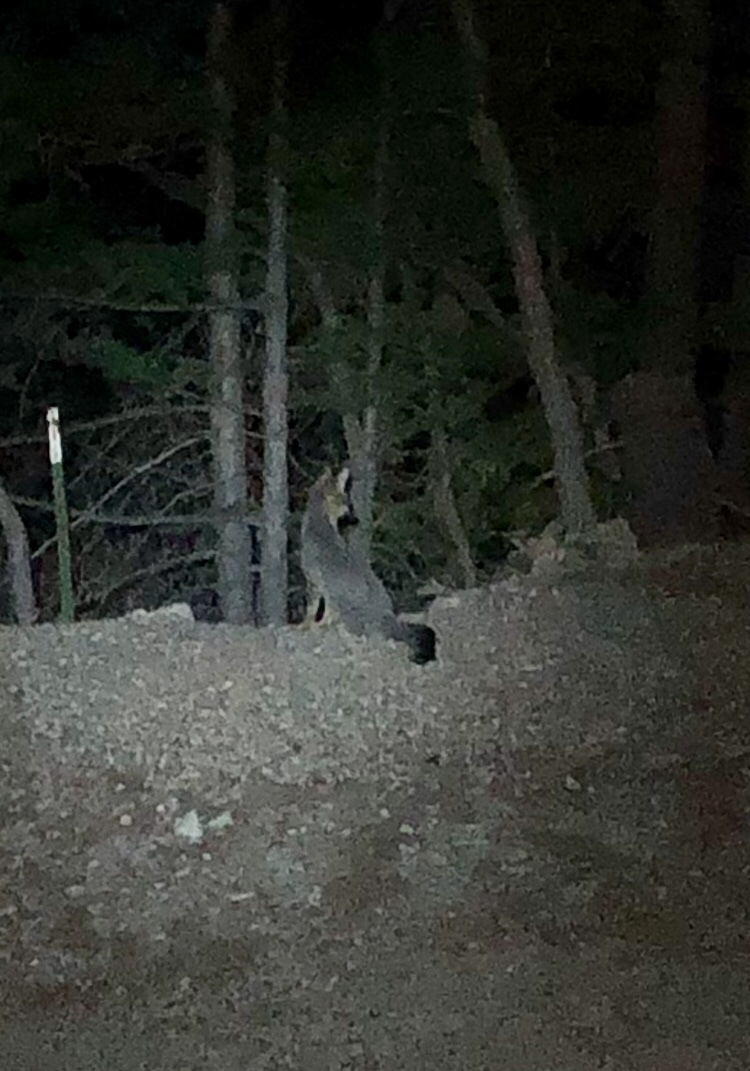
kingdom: Animalia
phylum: Chordata
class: Mammalia
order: Carnivora
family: Canidae
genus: Urocyon
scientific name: Urocyon cinereoargenteus
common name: Gray fox
